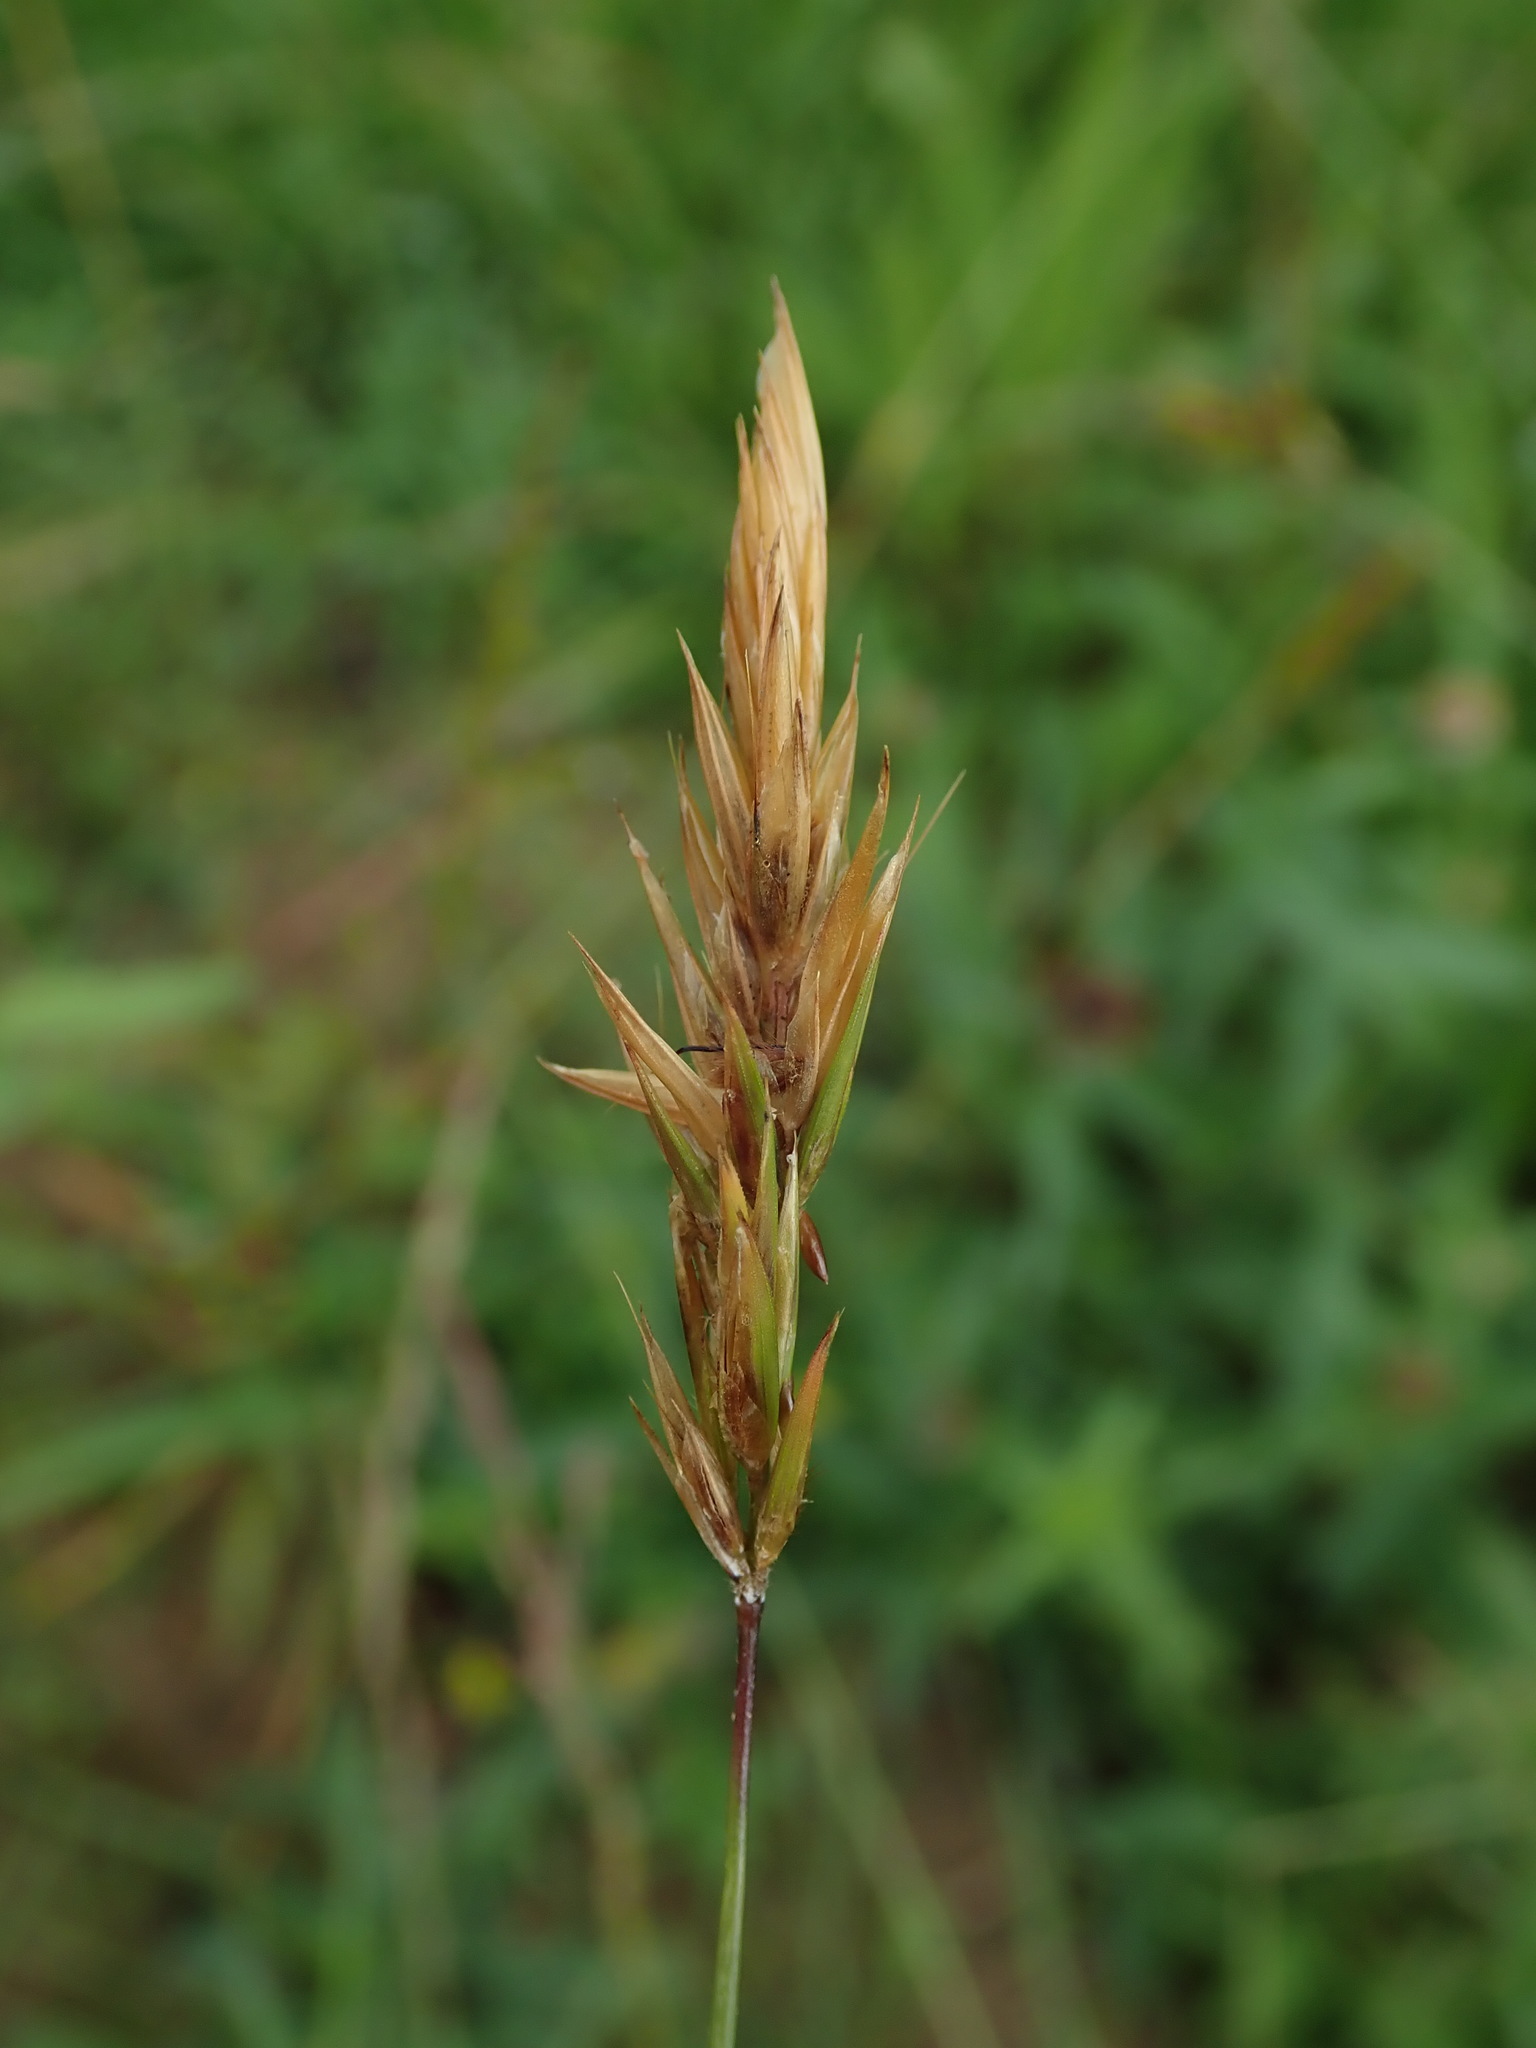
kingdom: Plantae
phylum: Tracheophyta
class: Liliopsida
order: Poales
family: Poaceae
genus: Anthoxanthum
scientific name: Anthoxanthum odoratum
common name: Sweet vernalgrass
